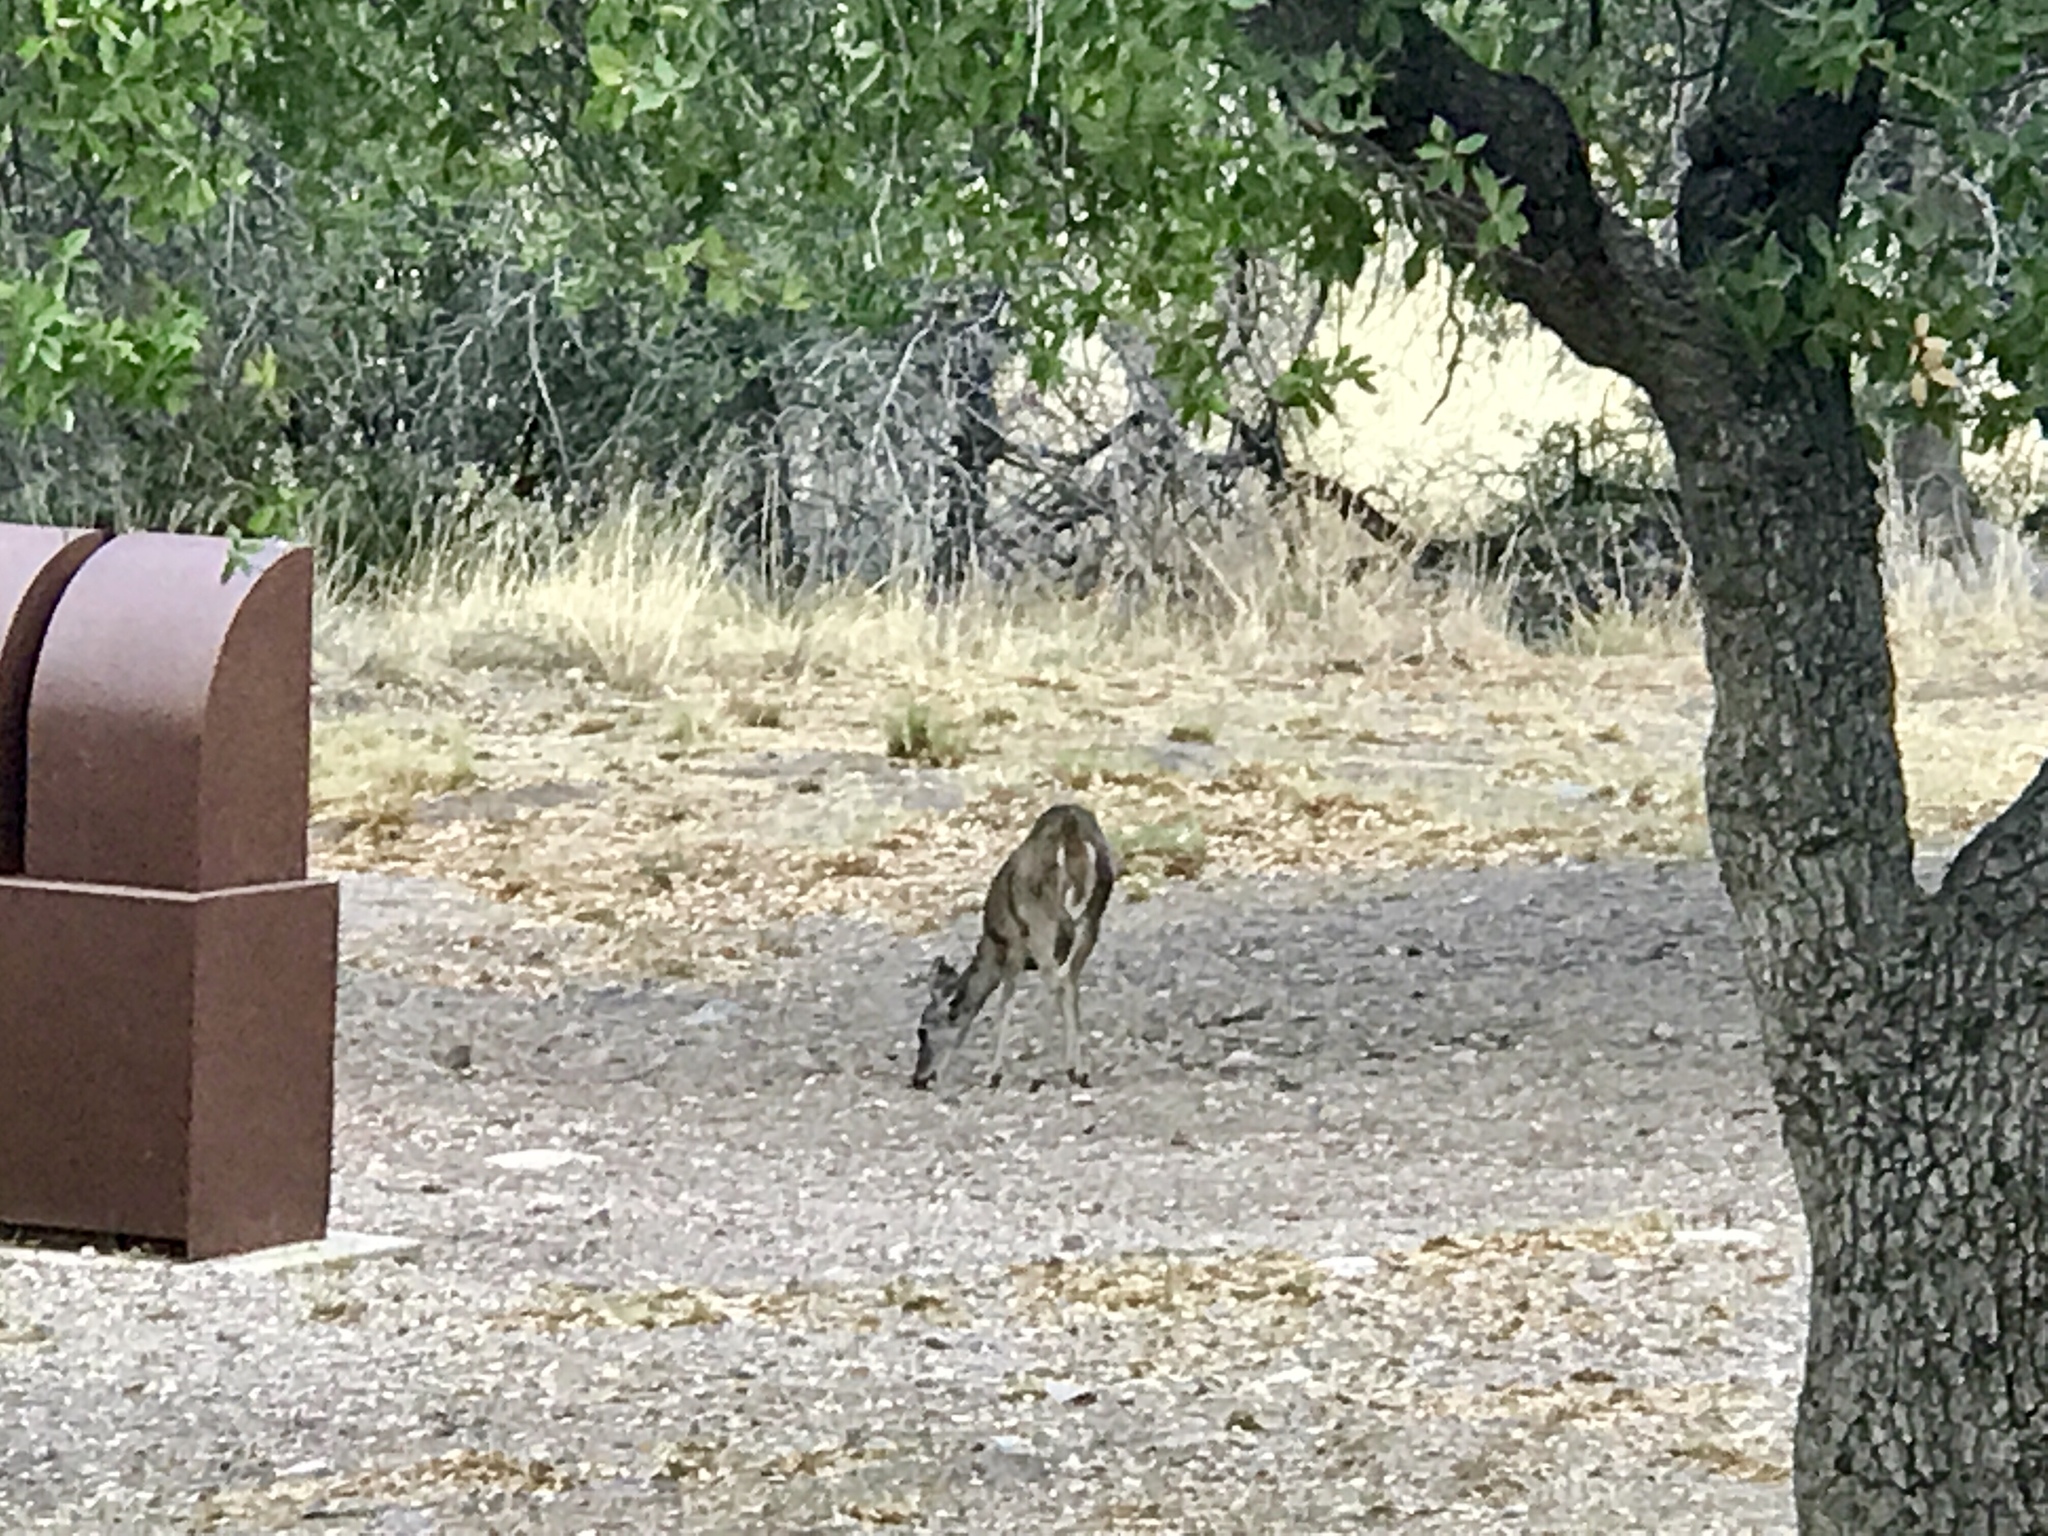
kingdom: Animalia
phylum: Chordata
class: Mammalia
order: Artiodactyla
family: Cervidae
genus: Odocoileus
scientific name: Odocoileus virginianus
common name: White-tailed deer
